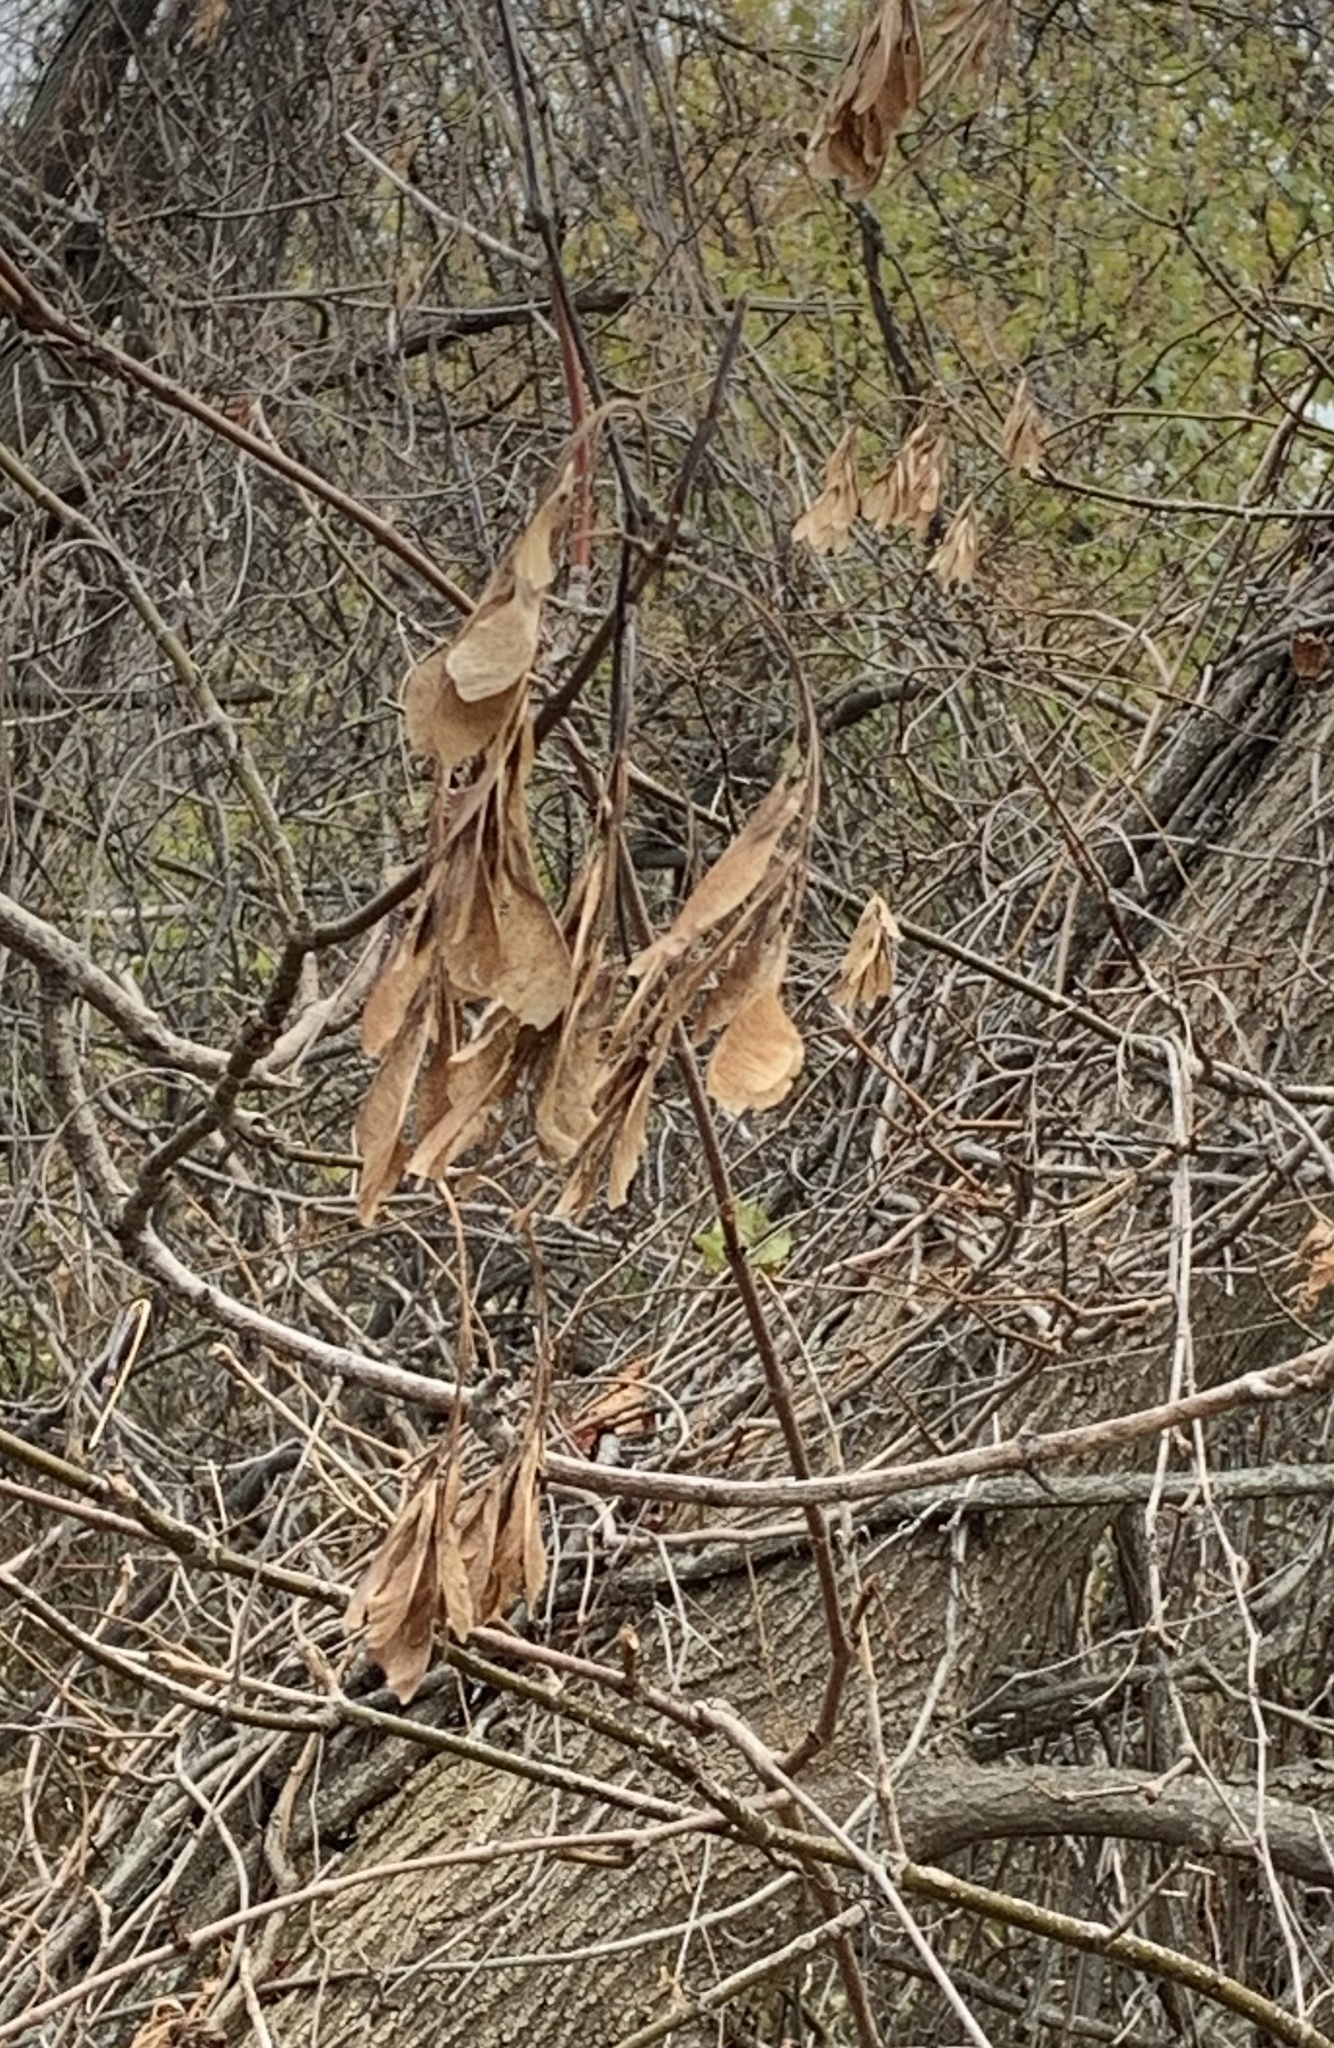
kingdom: Plantae
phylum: Tracheophyta
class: Magnoliopsida
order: Sapindales
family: Sapindaceae
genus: Acer
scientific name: Acer negundo
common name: Ashleaf maple
